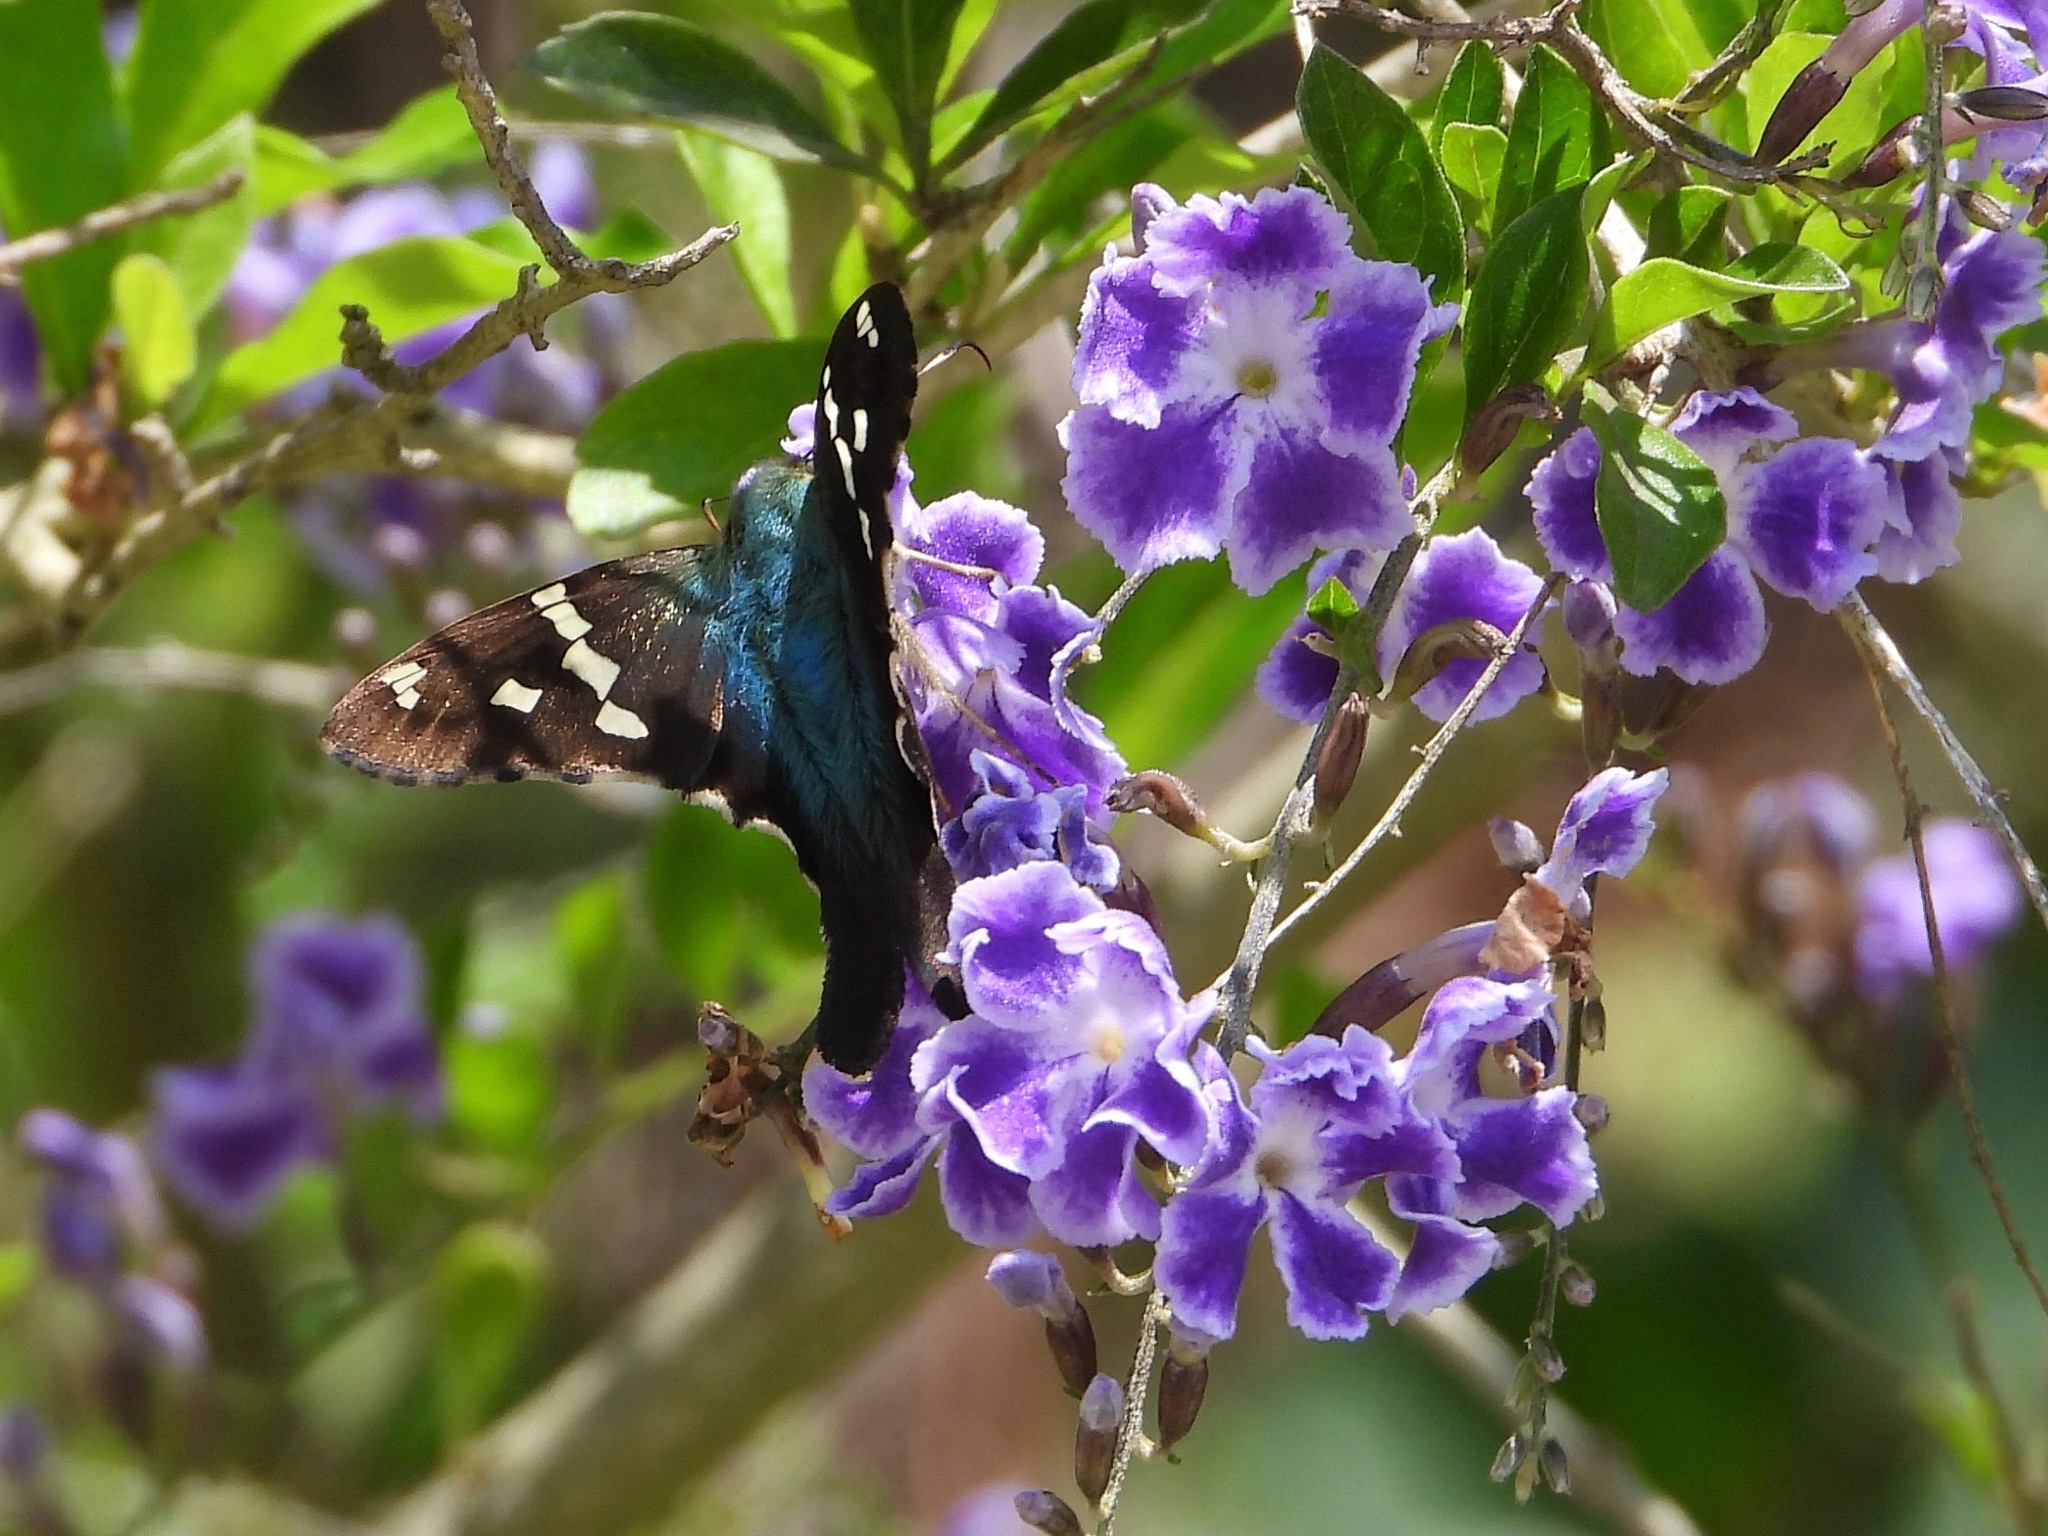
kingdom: Animalia
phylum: Arthropoda
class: Insecta
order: Lepidoptera
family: Hesperiidae
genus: Urbanus
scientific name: Urbanus proteus
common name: Long-tailed skipper
